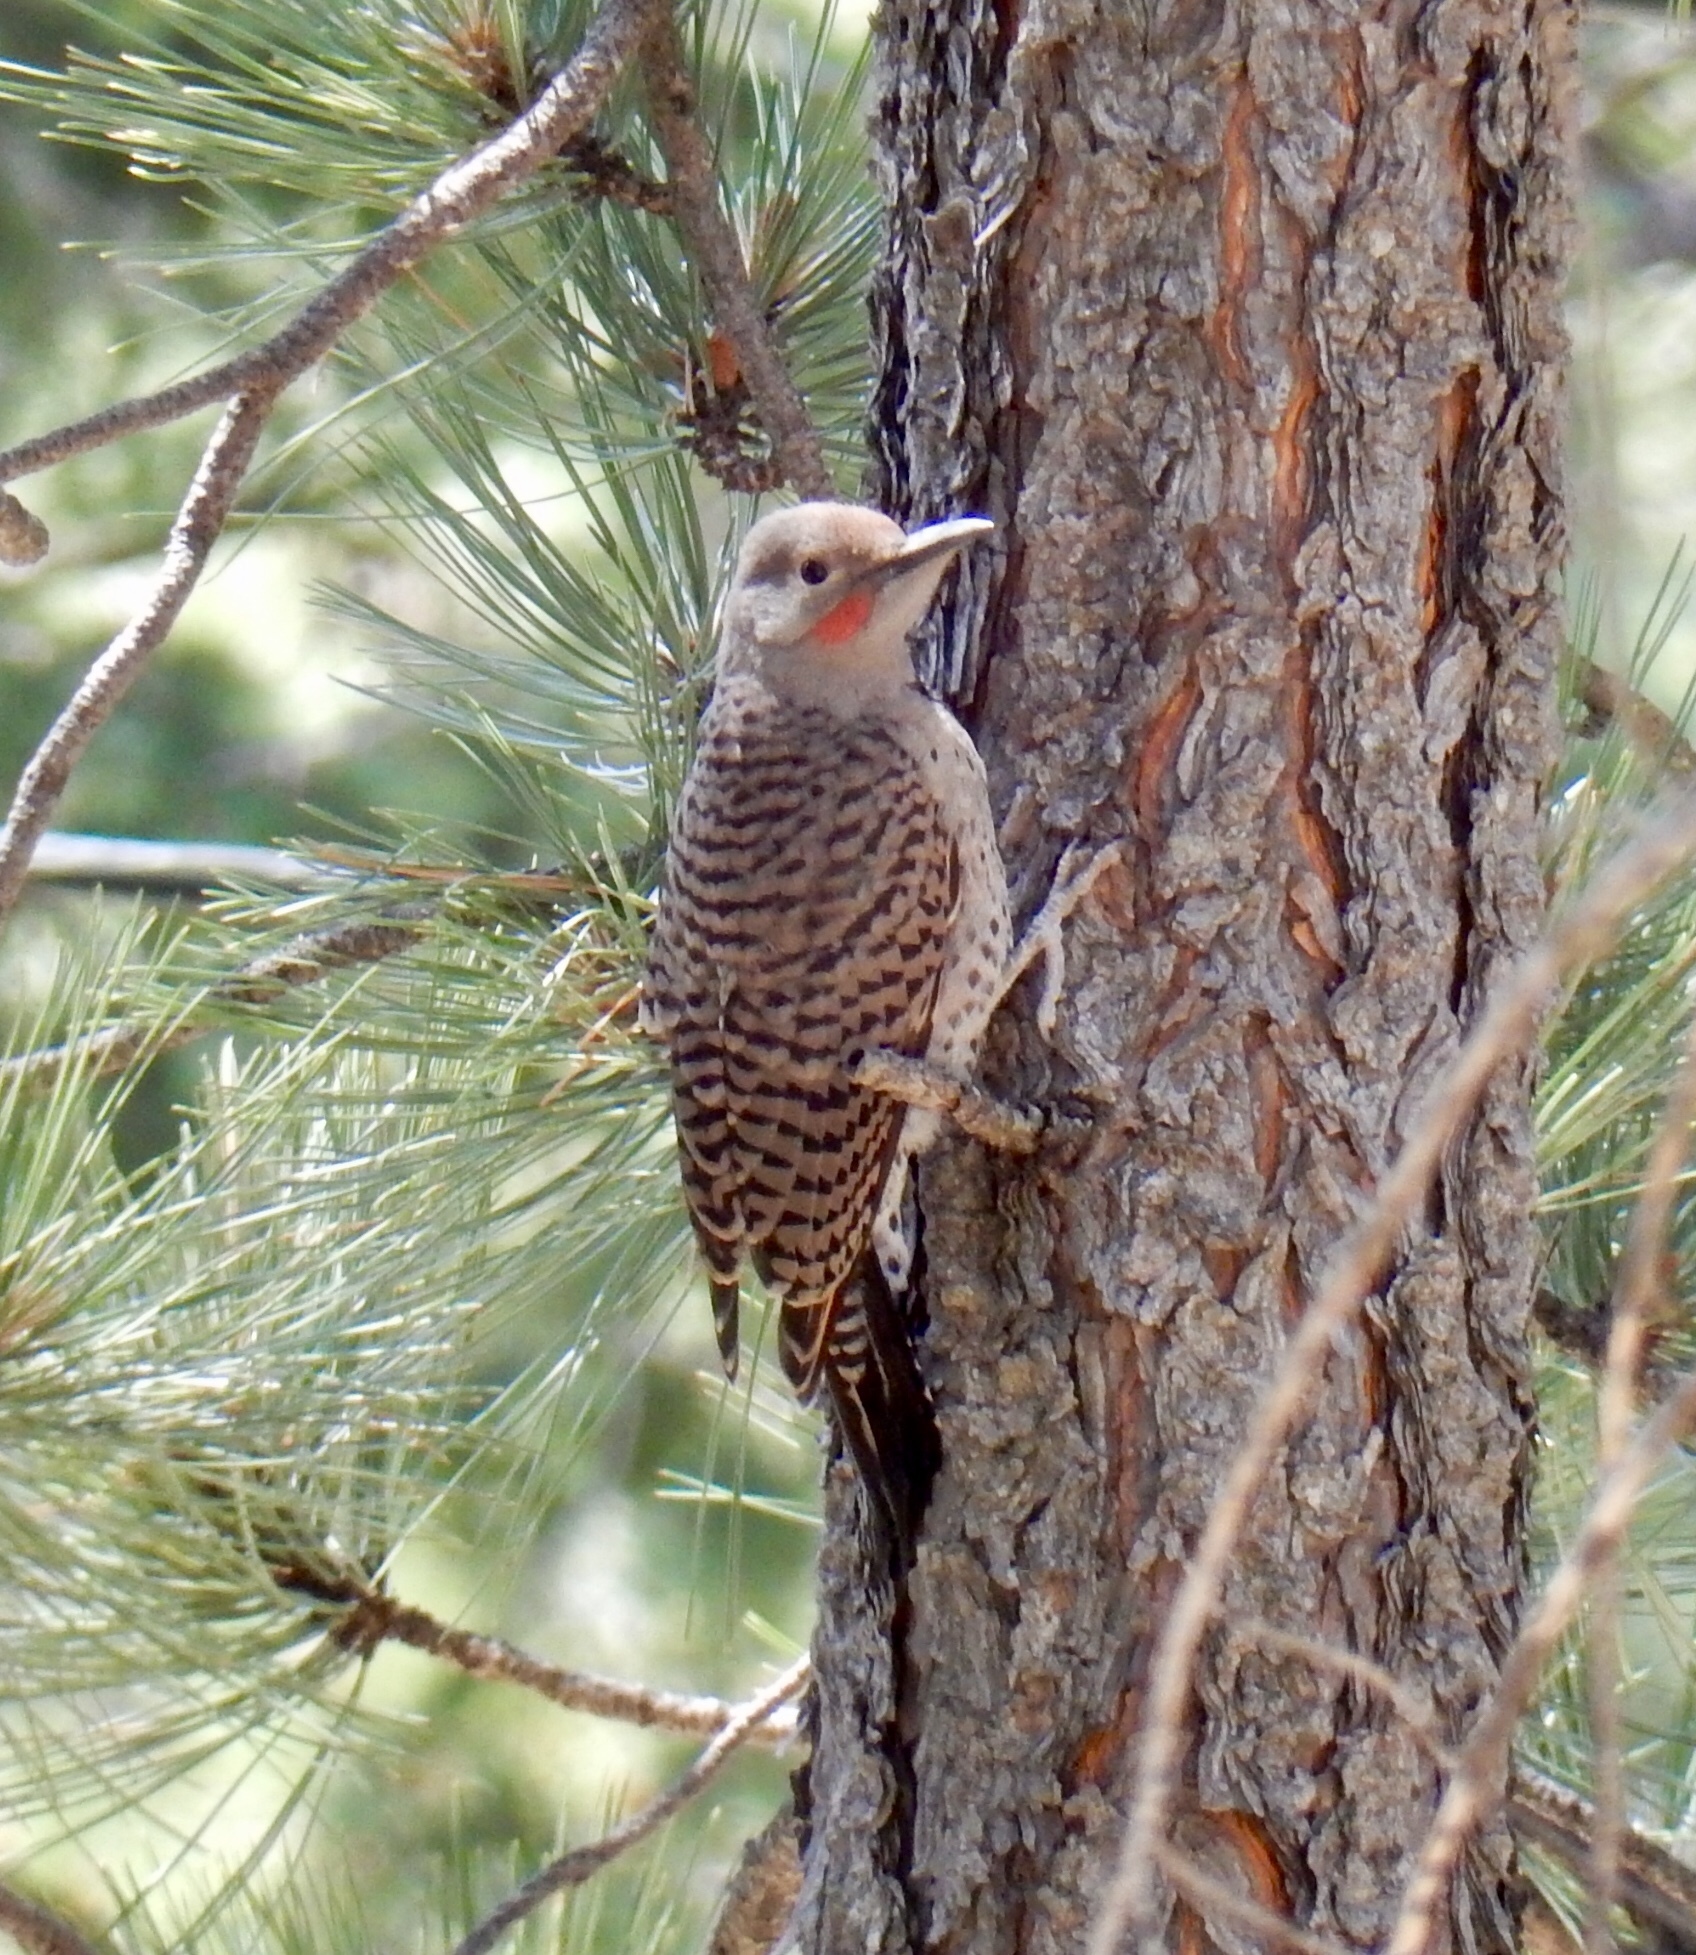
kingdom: Animalia
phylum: Chordata
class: Aves
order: Piciformes
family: Picidae
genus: Colaptes
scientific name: Colaptes auratus
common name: Northern flicker
